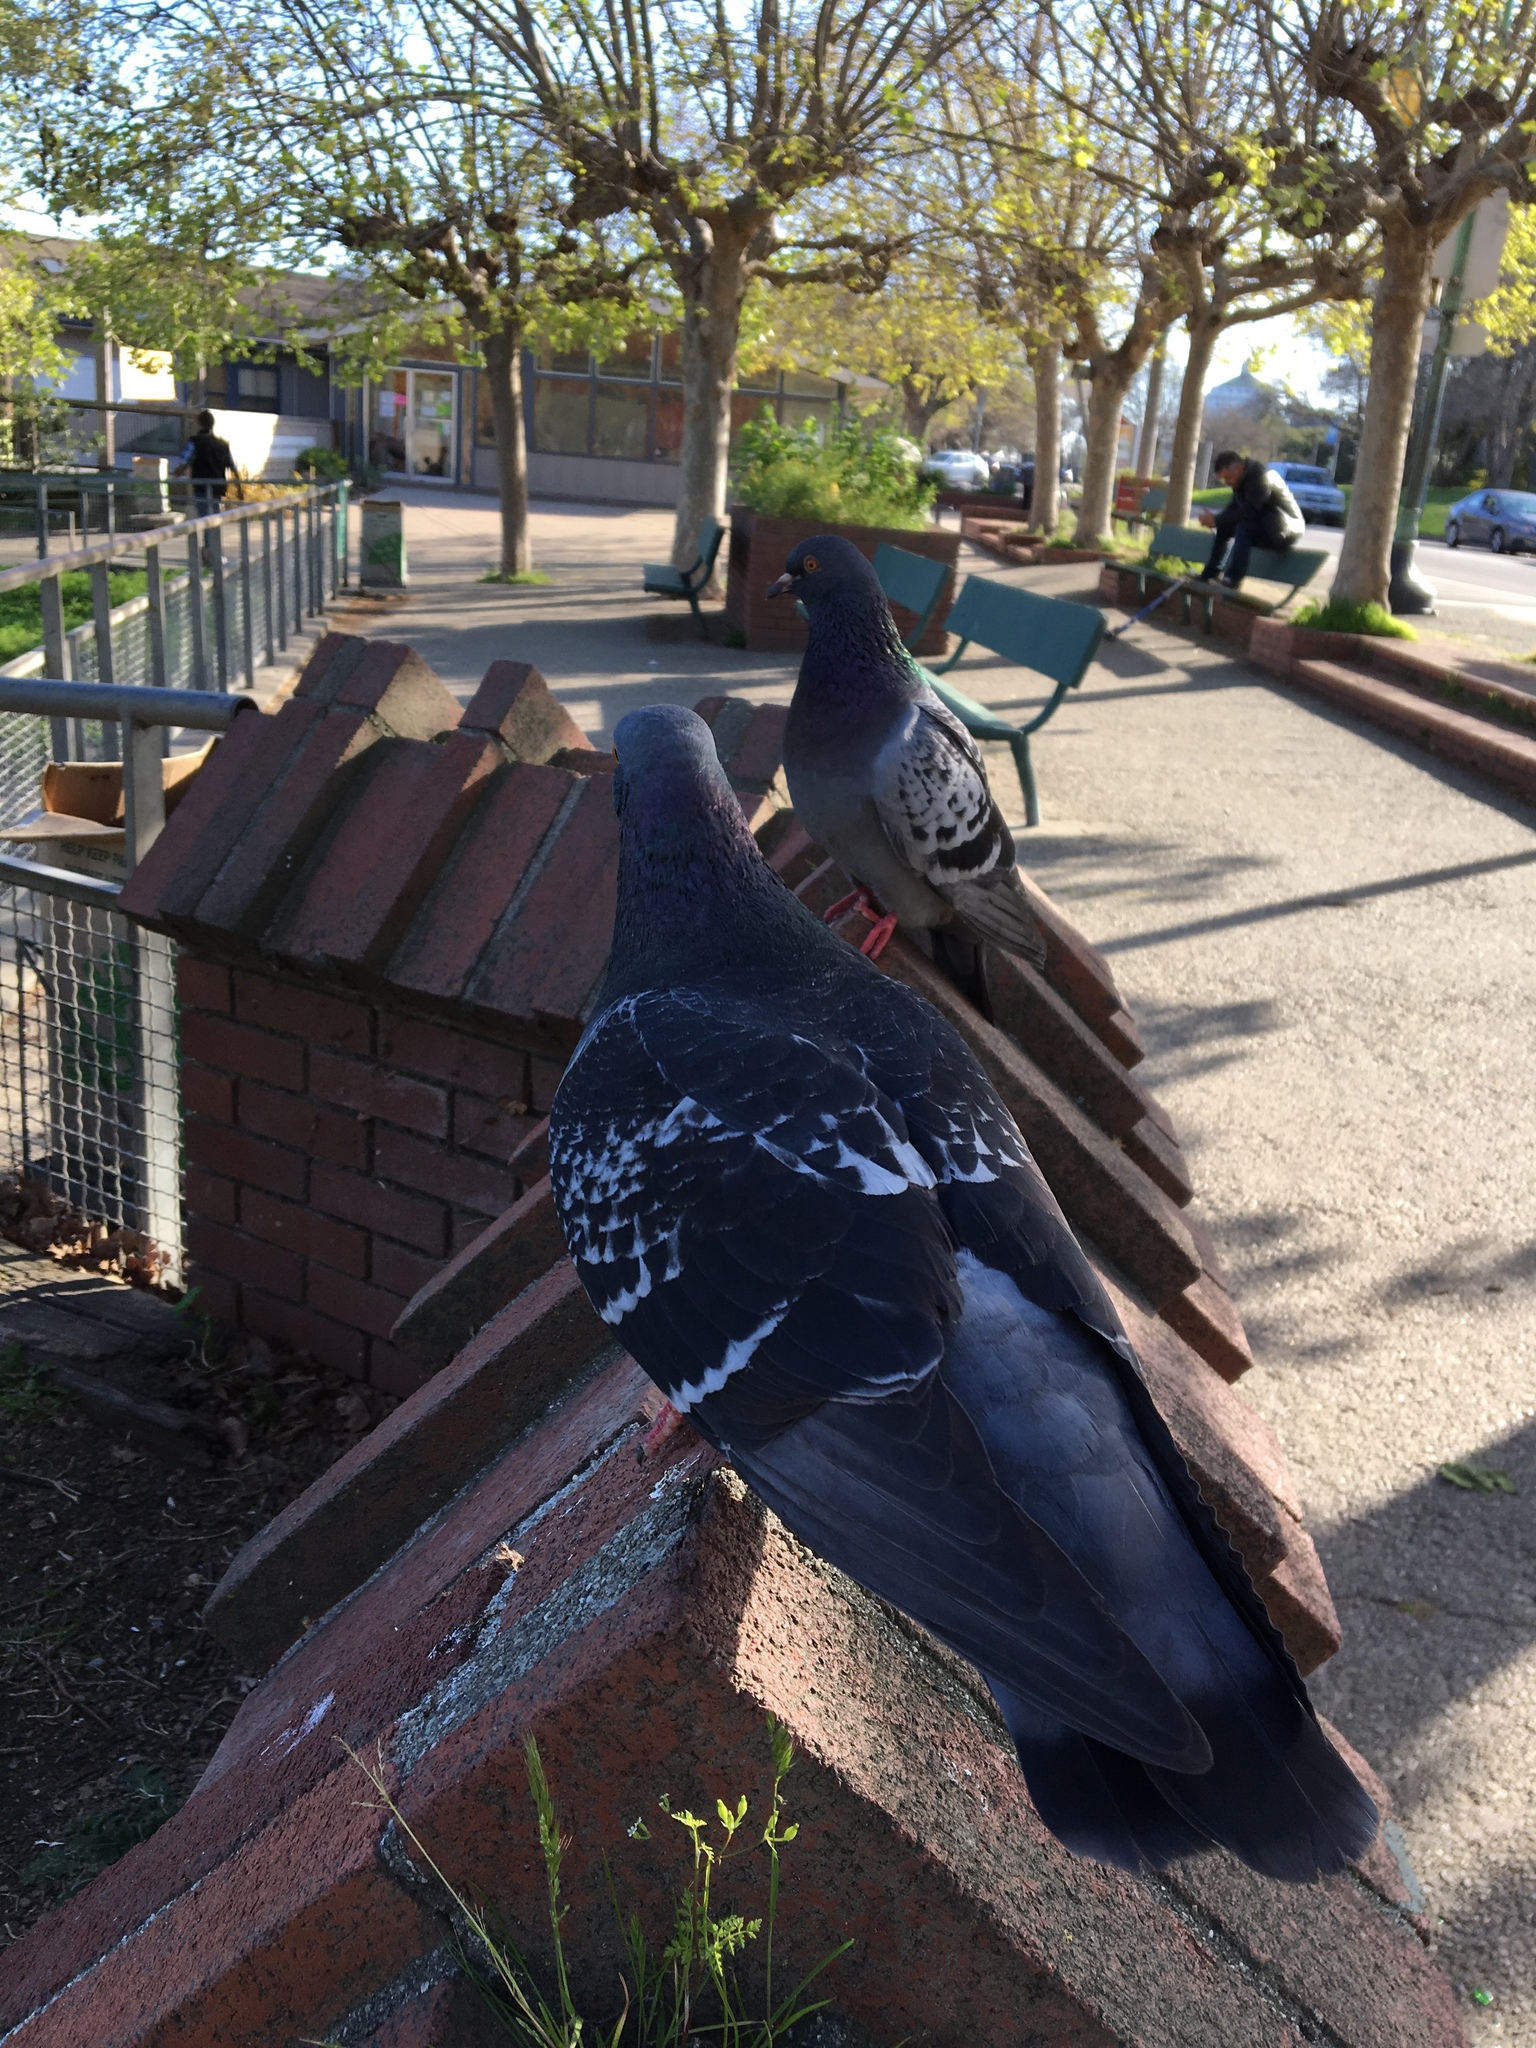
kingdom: Animalia
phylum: Chordata
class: Aves
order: Columbiformes
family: Columbidae
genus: Columba
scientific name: Columba livia
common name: Rock pigeon
